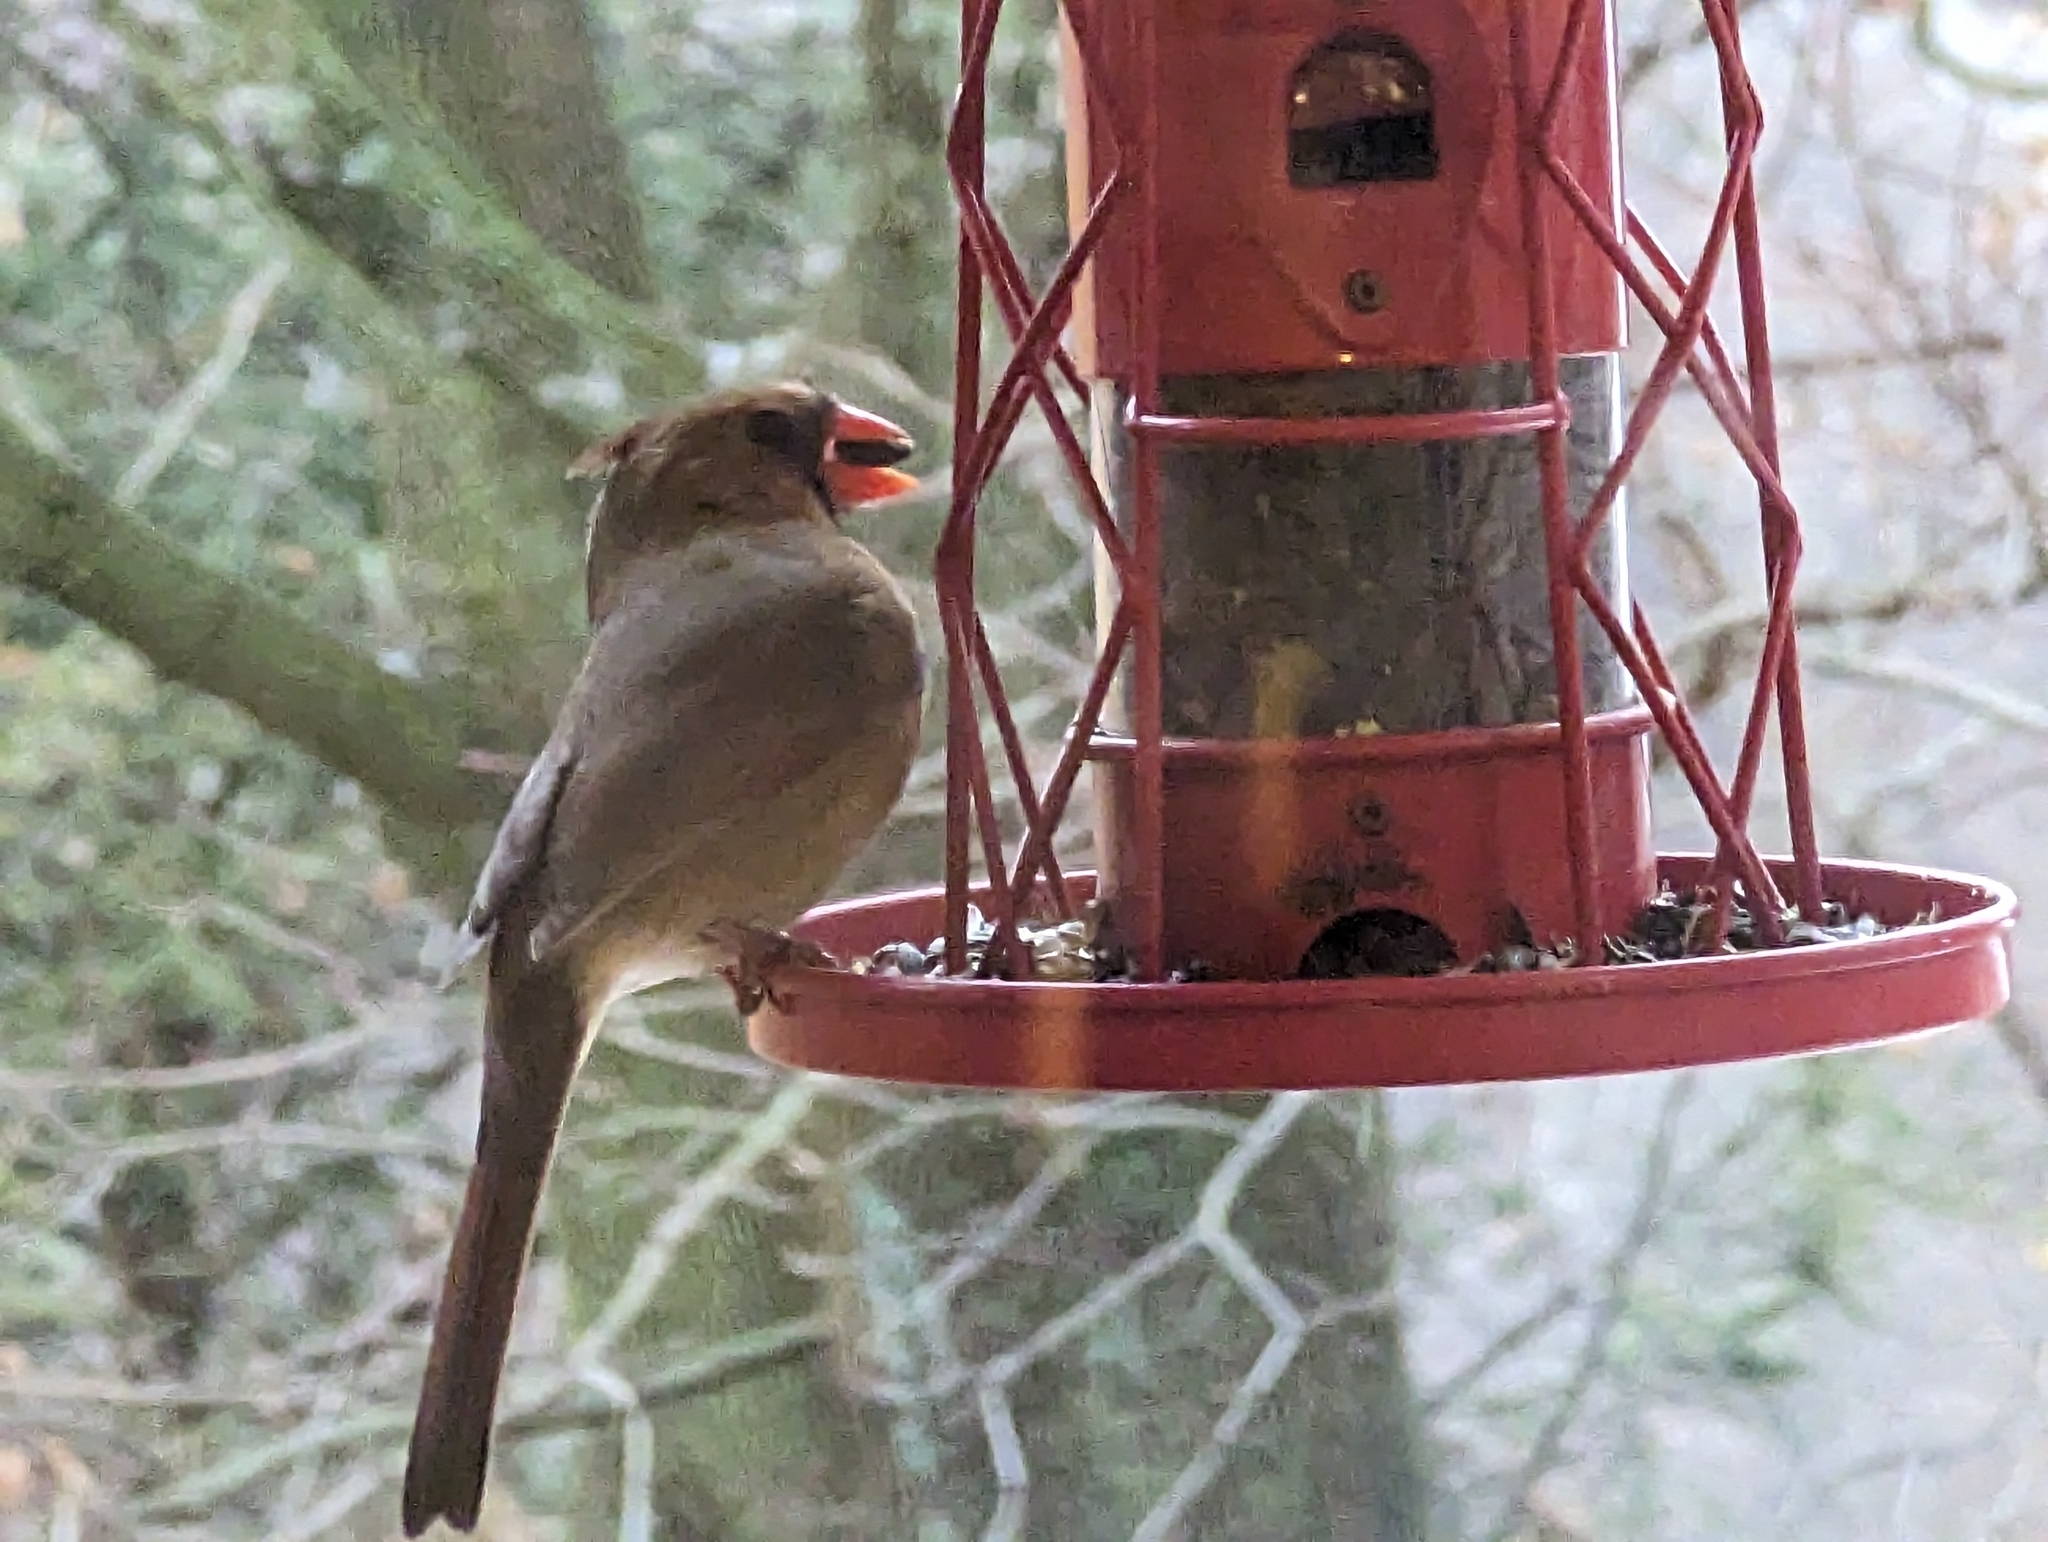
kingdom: Animalia
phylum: Chordata
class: Aves
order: Passeriformes
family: Cardinalidae
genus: Cardinalis
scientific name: Cardinalis cardinalis
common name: Northern cardinal
